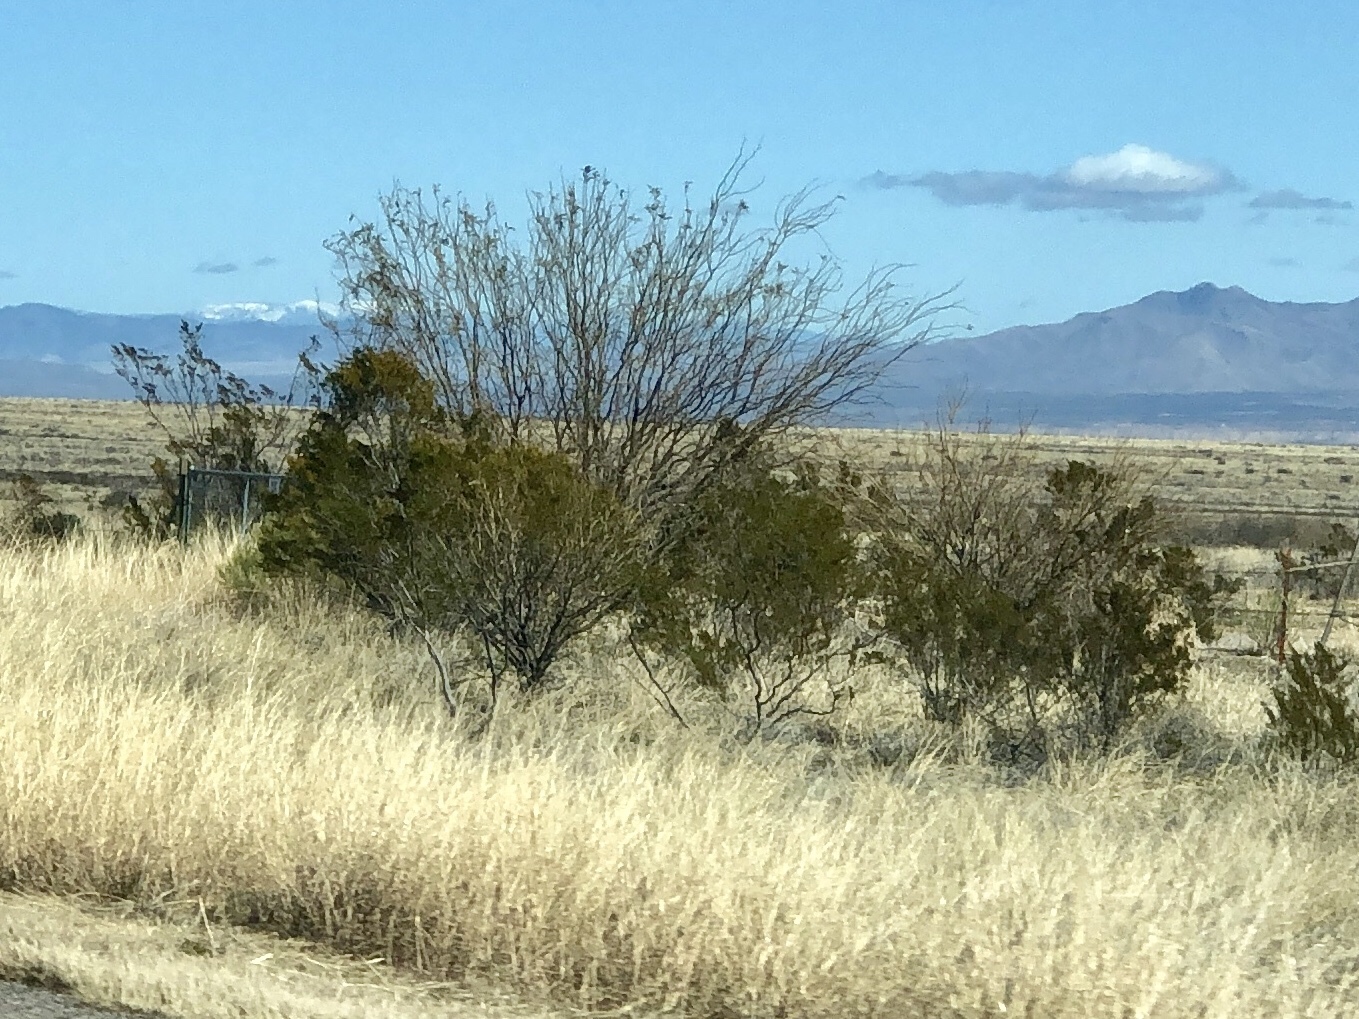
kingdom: Plantae
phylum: Tracheophyta
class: Magnoliopsida
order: Zygophyllales
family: Zygophyllaceae
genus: Larrea
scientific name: Larrea tridentata
